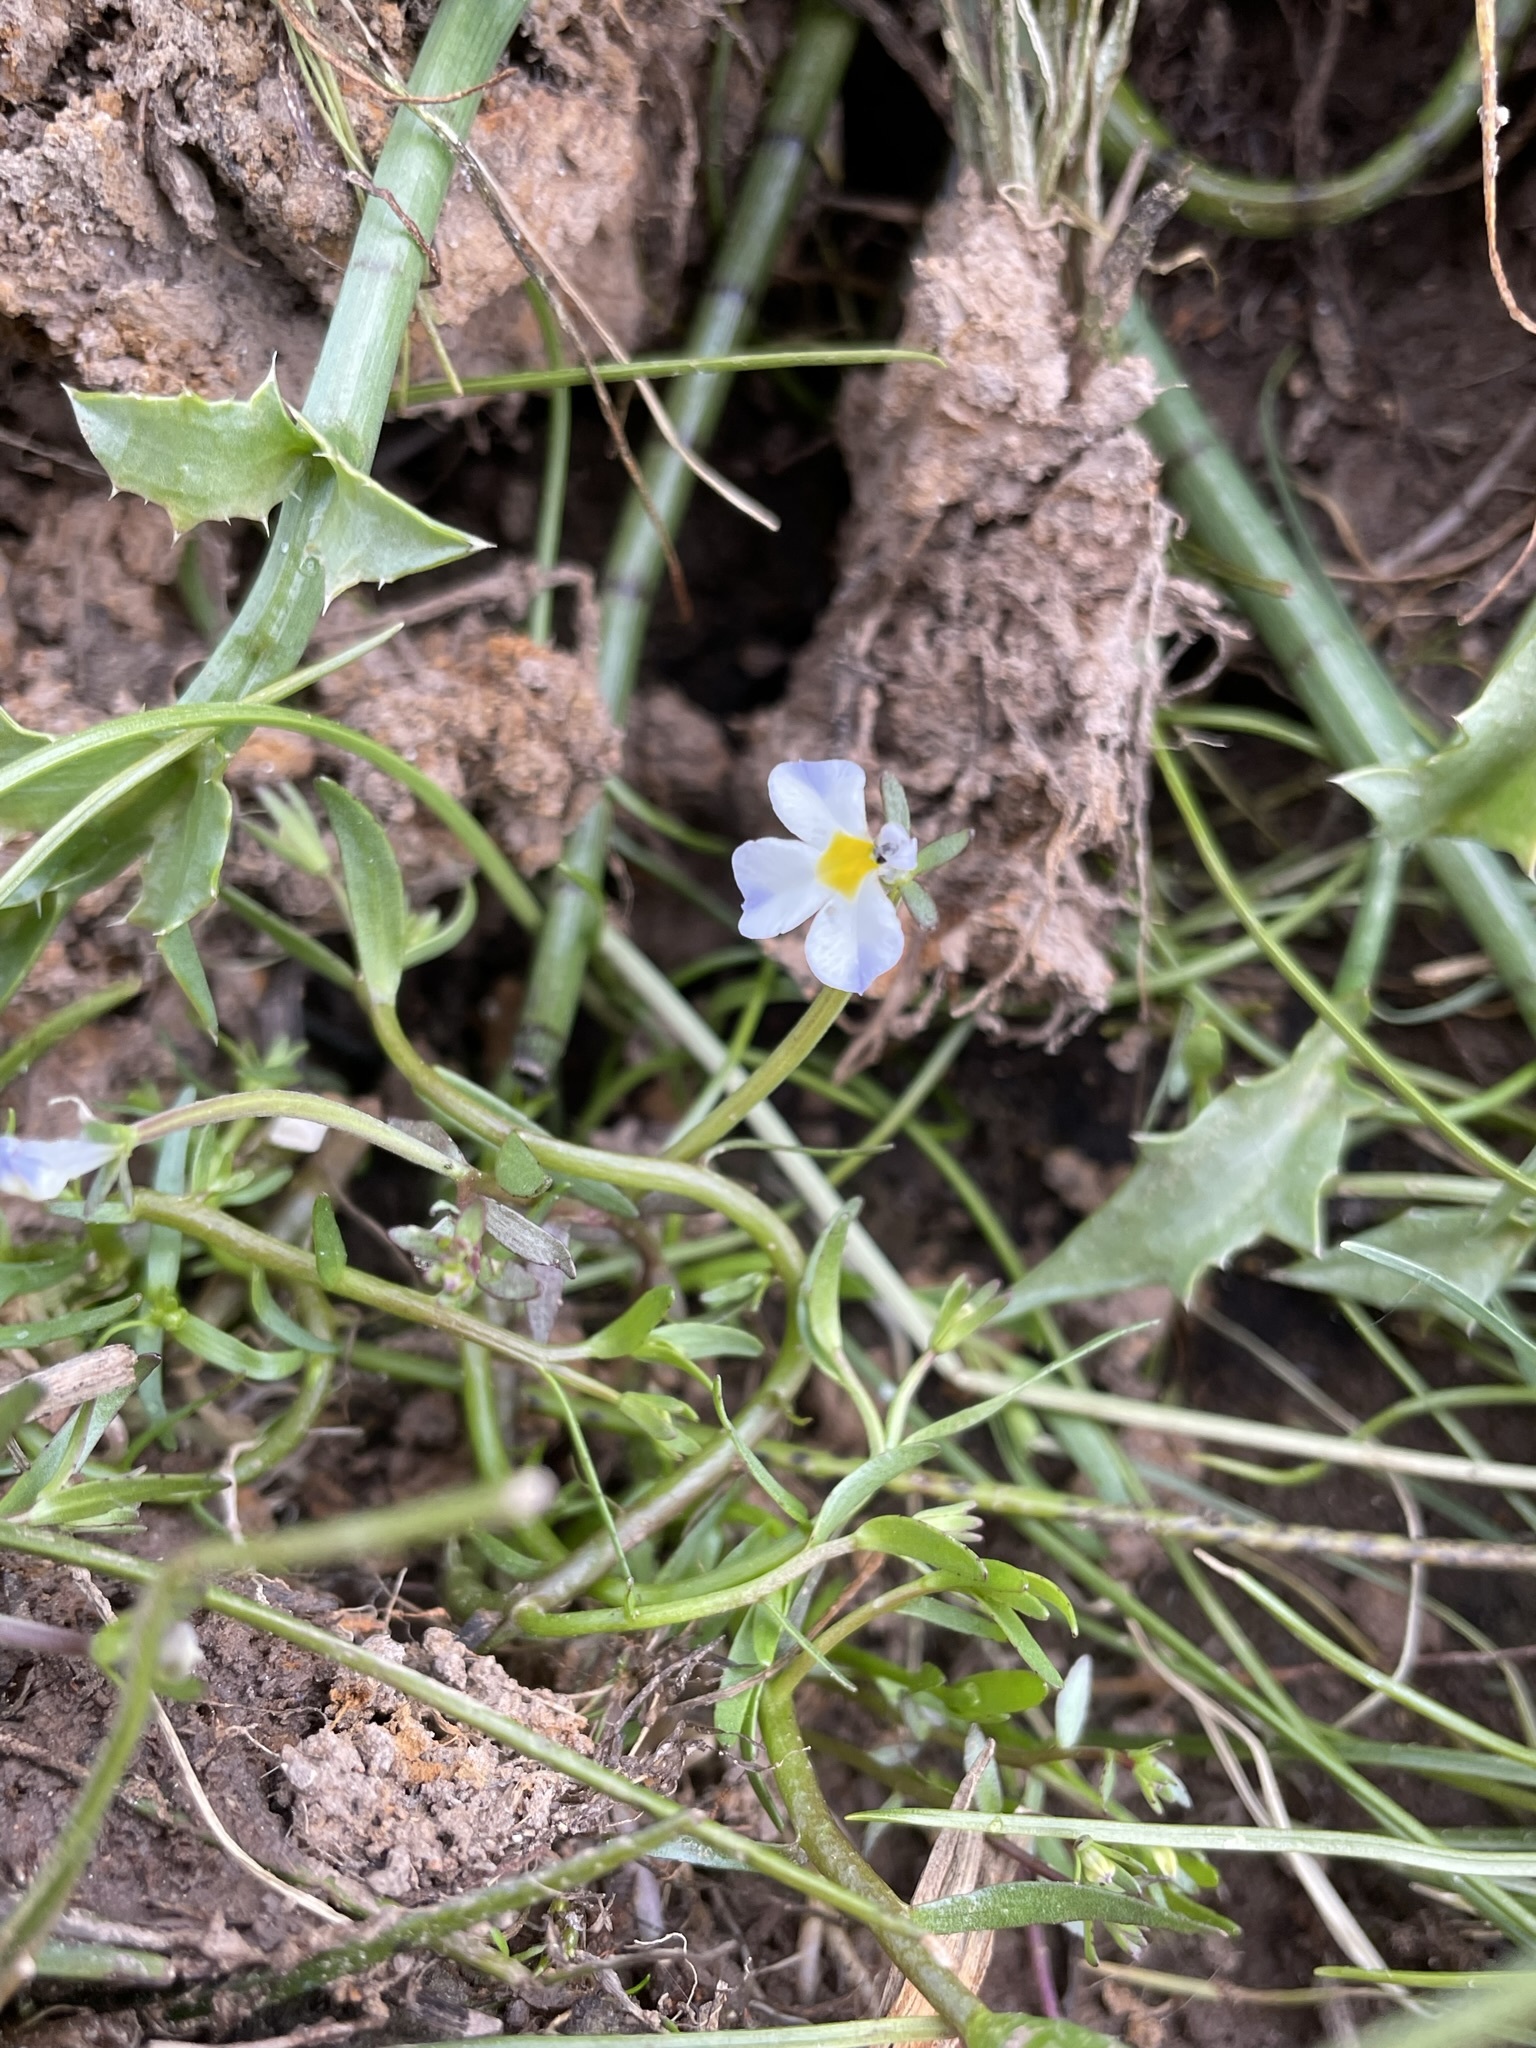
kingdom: Plantae
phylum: Tracheophyta
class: Magnoliopsida
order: Asterales
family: Campanulaceae
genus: Downingia
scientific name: Downingia cuspidata
